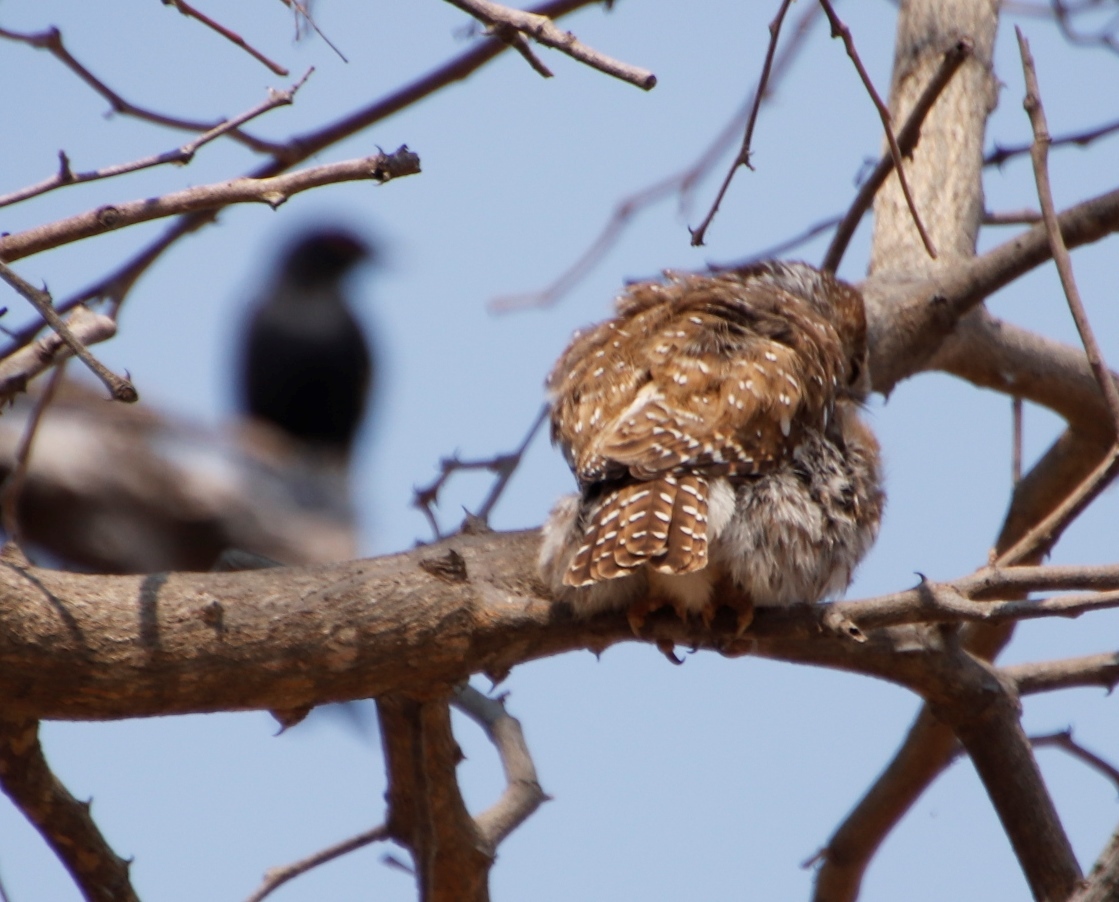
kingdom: Animalia
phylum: Chordata
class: Aves
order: Passeriformes
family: Dicruridae
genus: Dicrurus
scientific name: Dicrurus adsimilis
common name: Fork-tailed drongo
